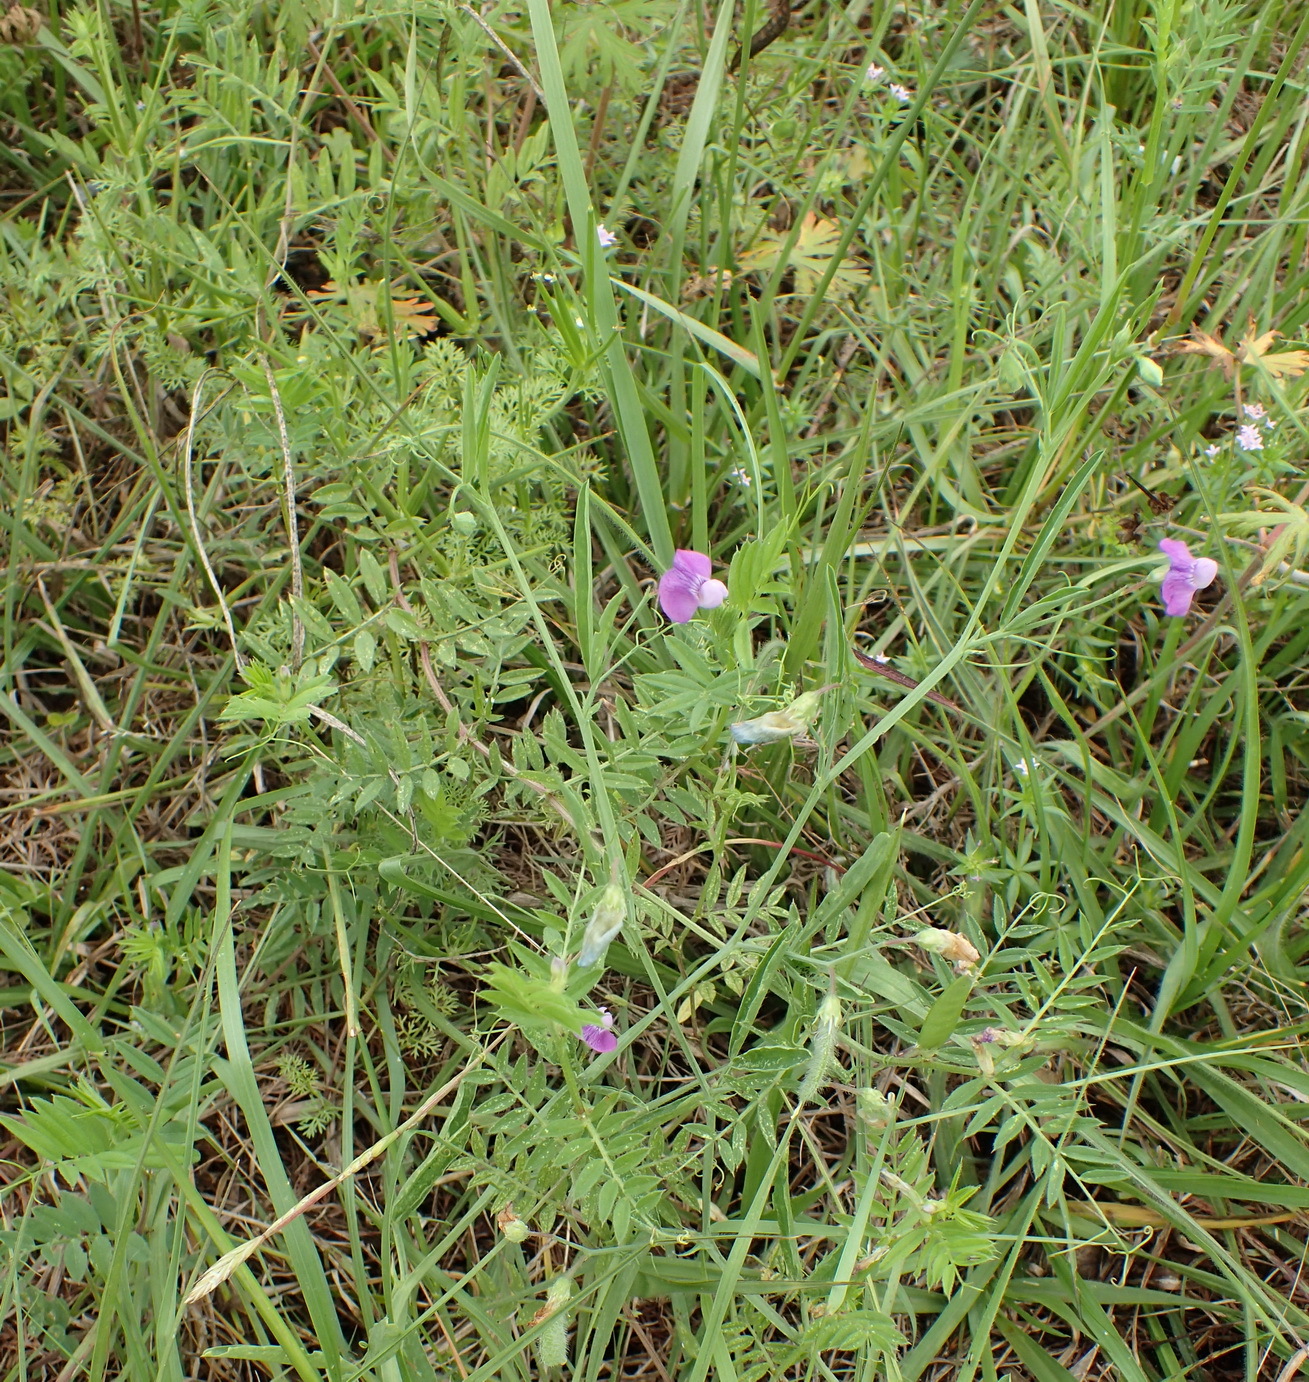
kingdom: Plantae
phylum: Tracheophyta
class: Magnoliopsida
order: Fabales
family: Fabaceae
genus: Lathyrus
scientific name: Lathyrus hirsutus
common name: Hairy vetchling
